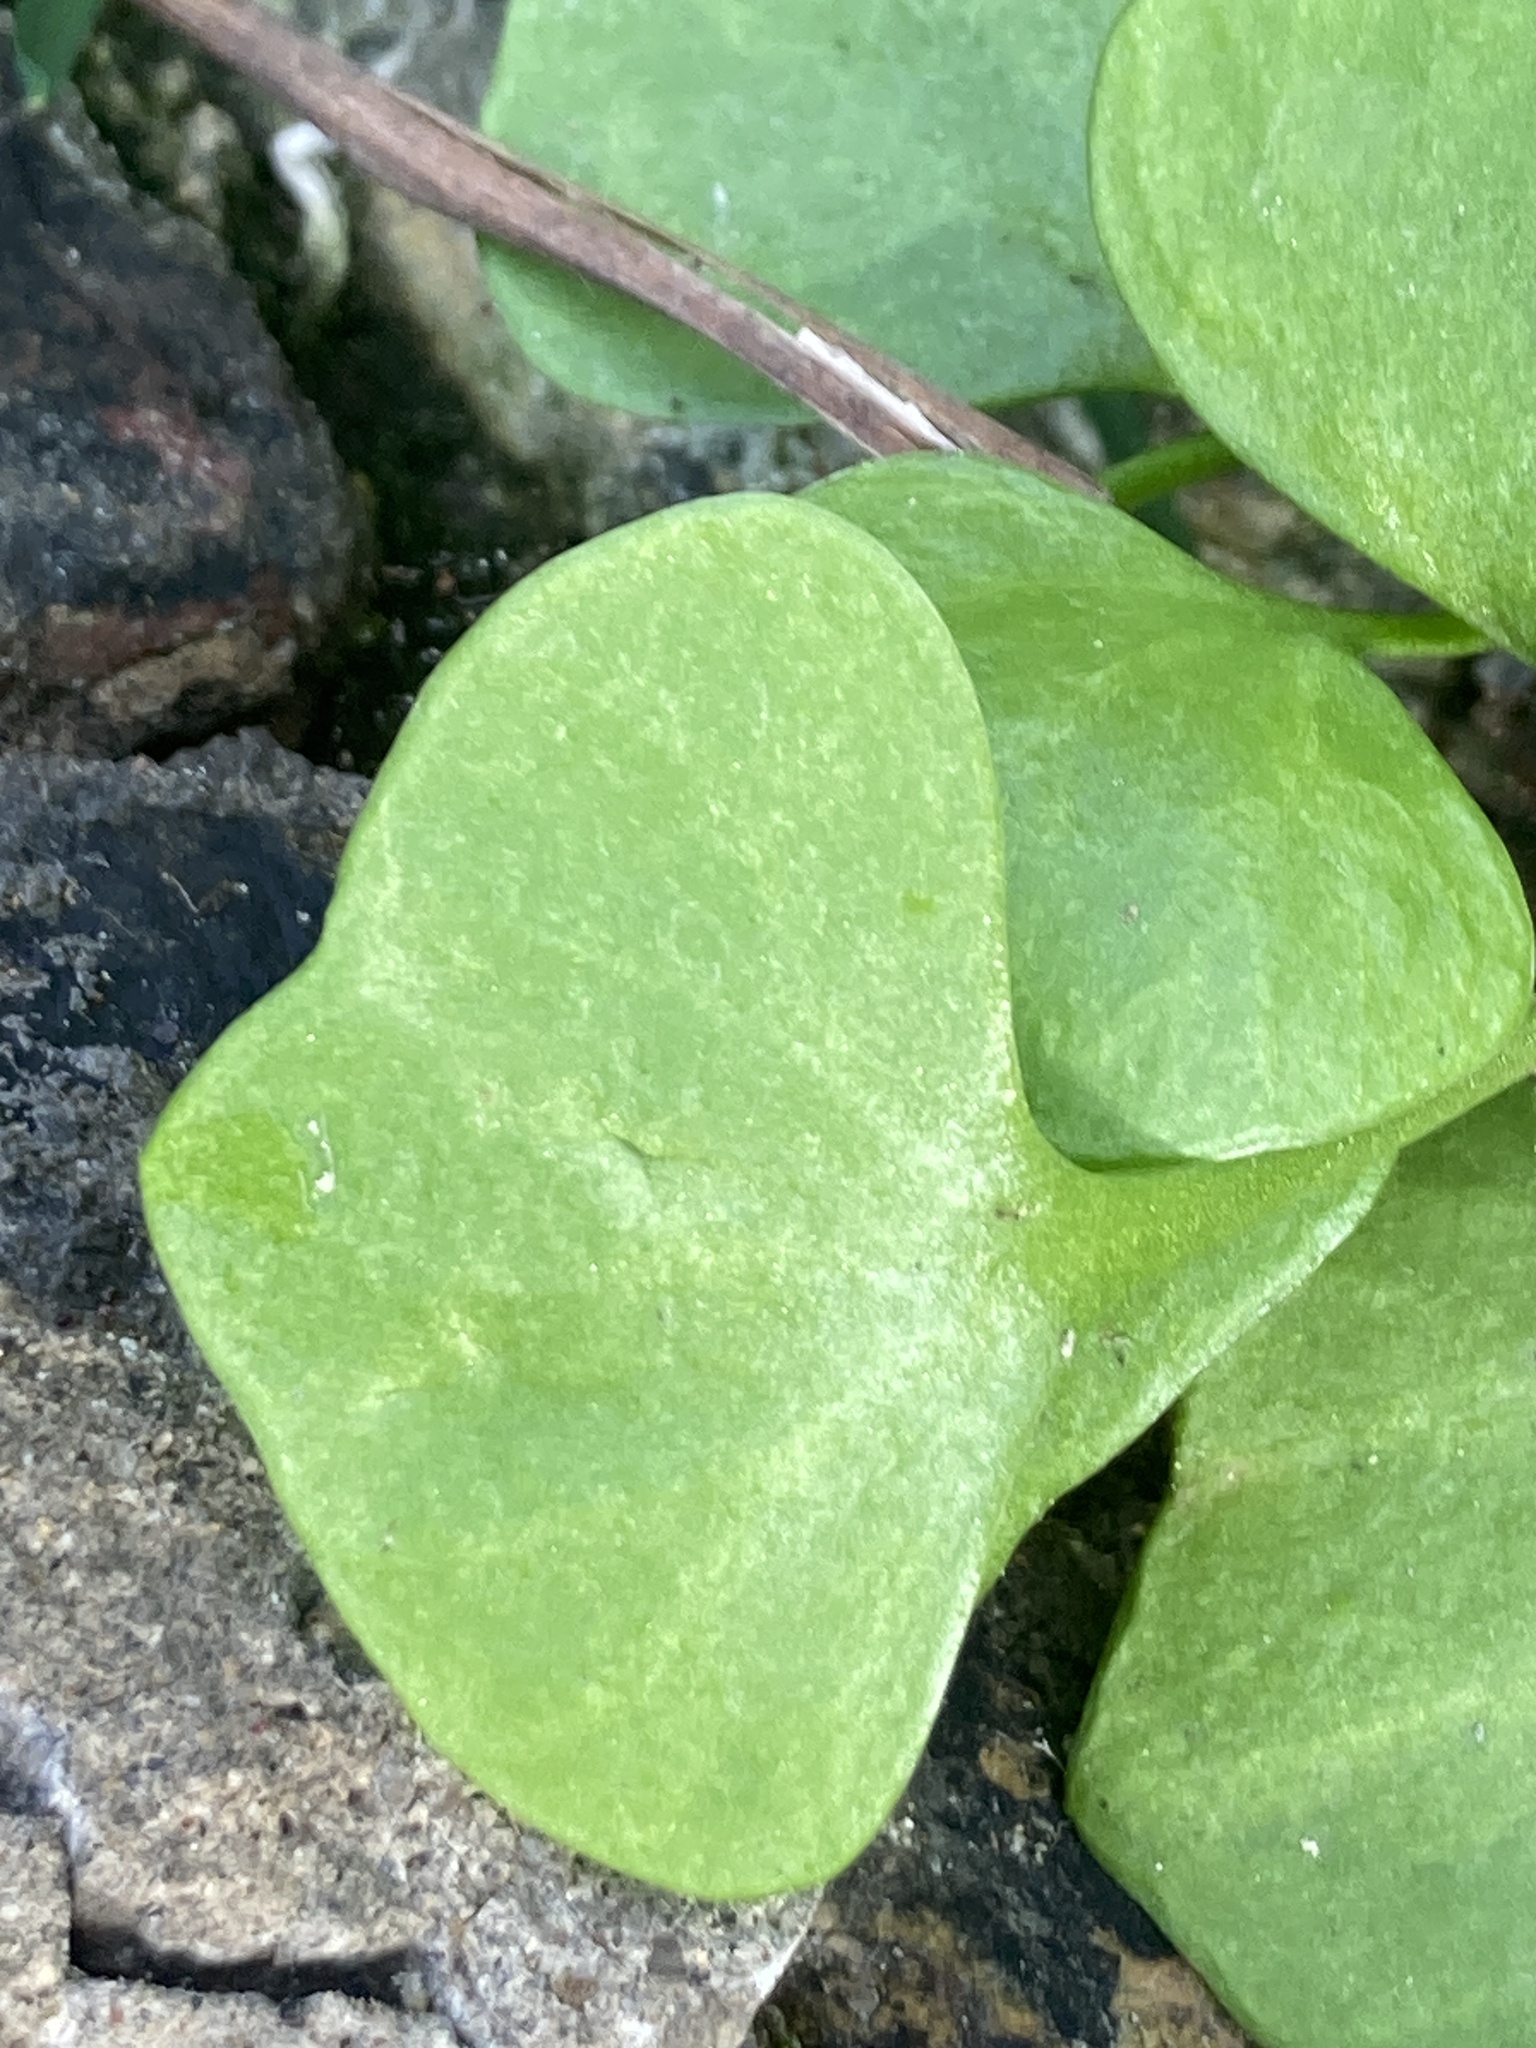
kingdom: Plantae
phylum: Tracheophyta
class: Magnoliopsida
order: Caryophyllales
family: Montiaceae
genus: Claytonia
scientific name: Claytonia perfoliata
